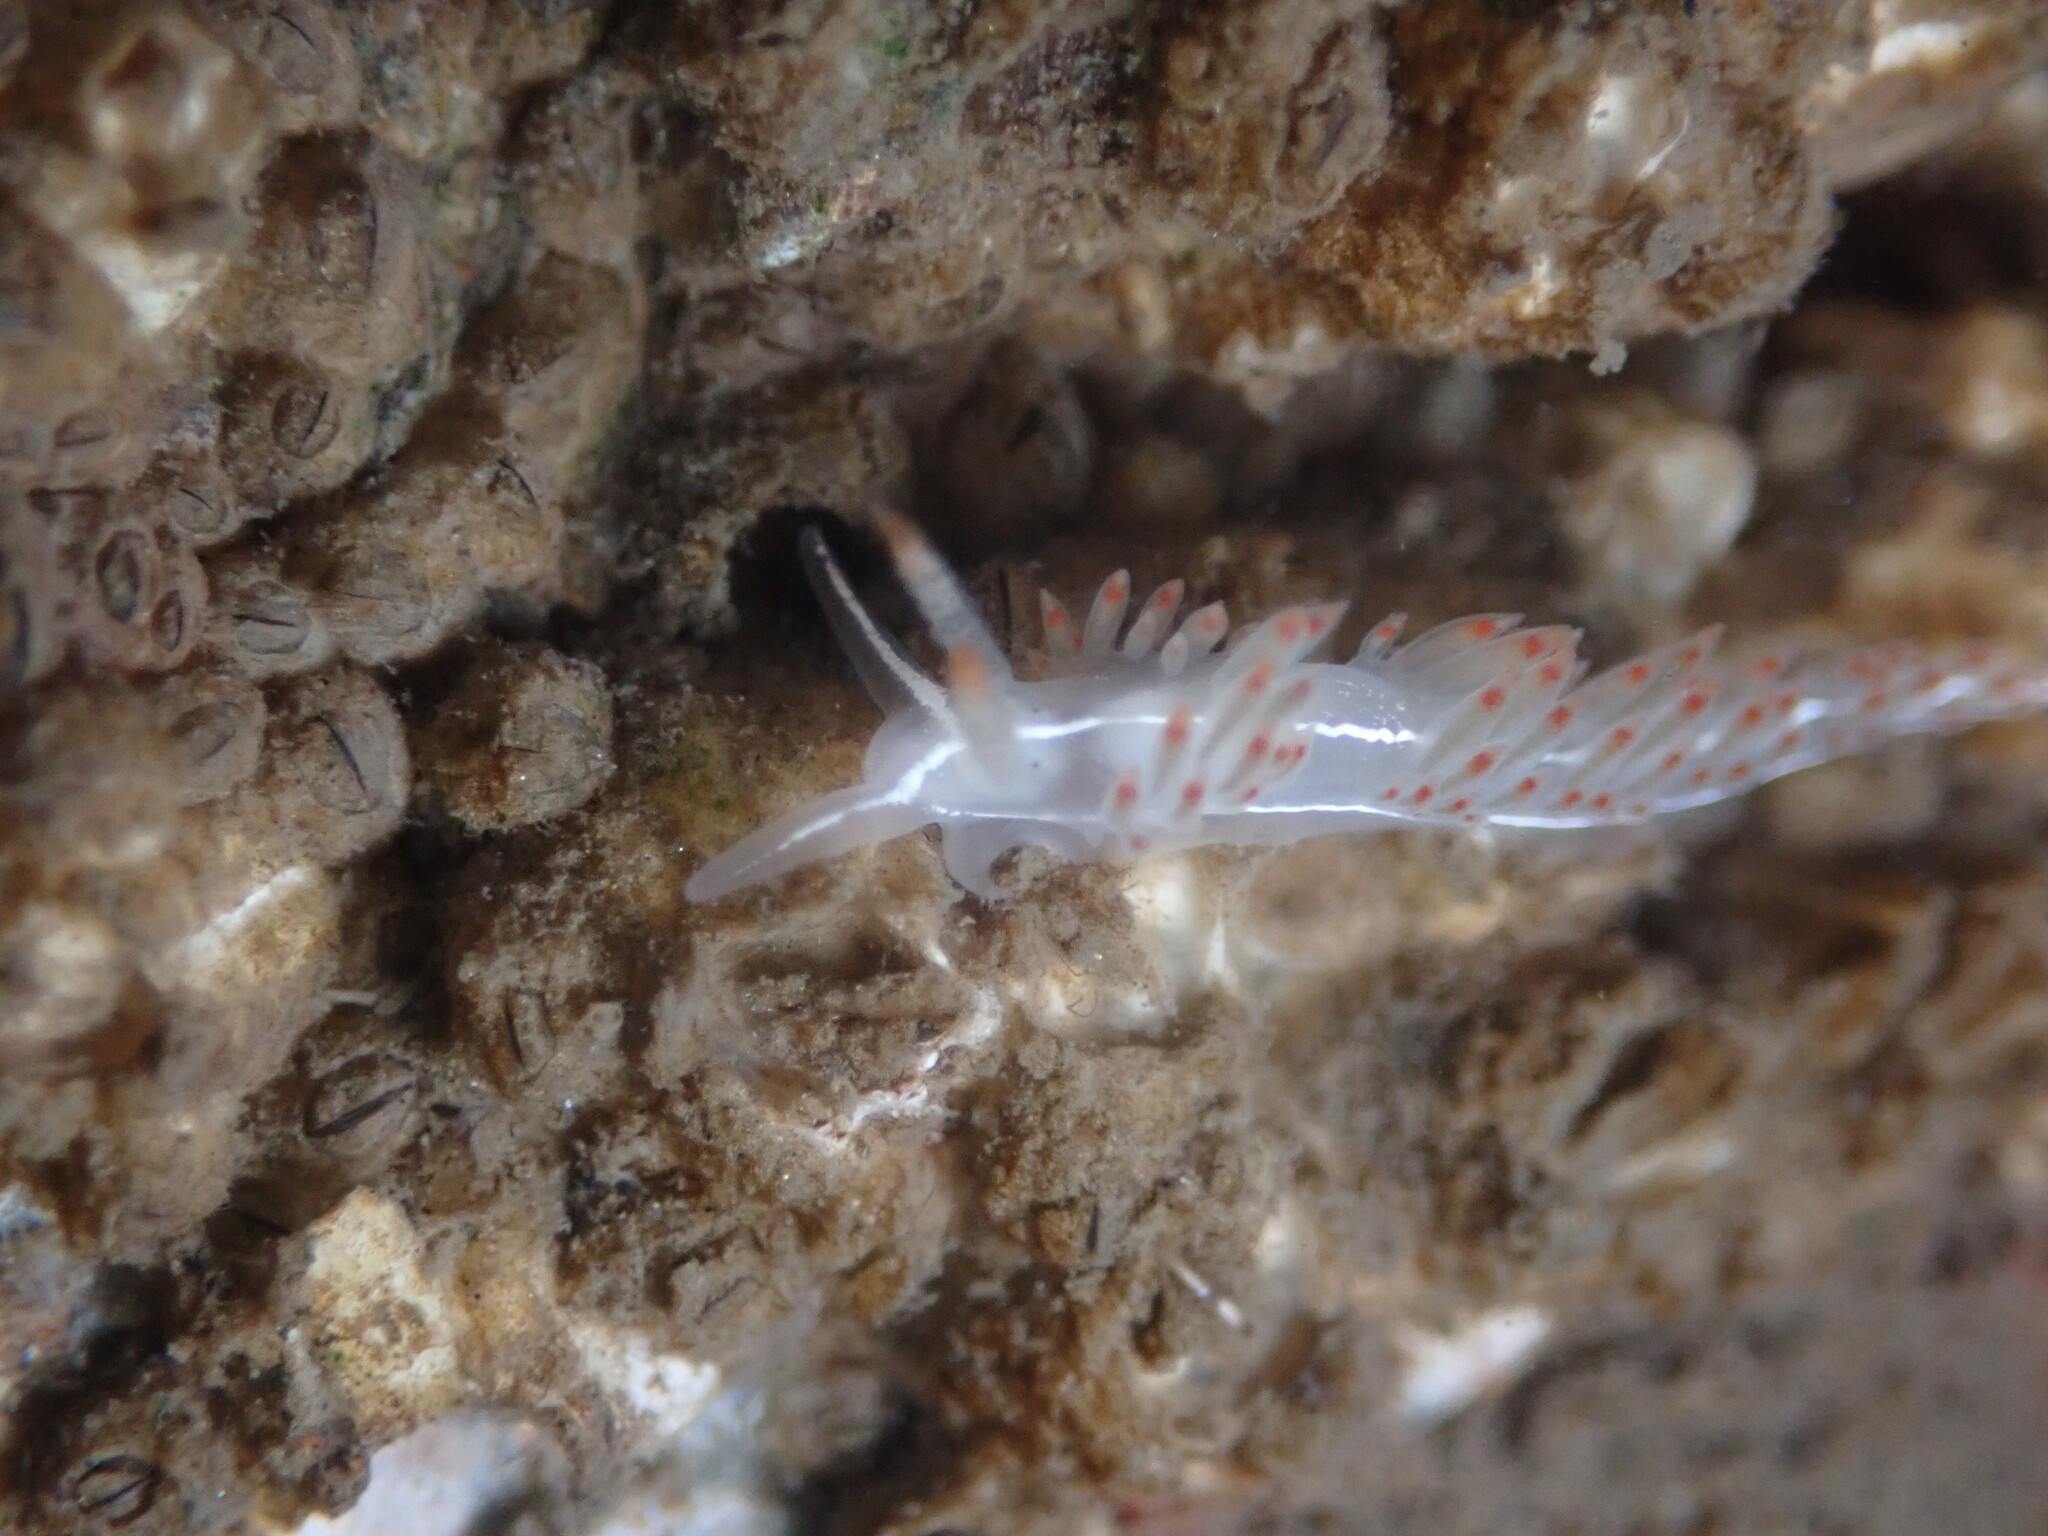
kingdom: Animalia
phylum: Mollusca
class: Gastropoda
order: Nudibranchia
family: Coryphellidae
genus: Coryphella
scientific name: Coryphella trilineata
